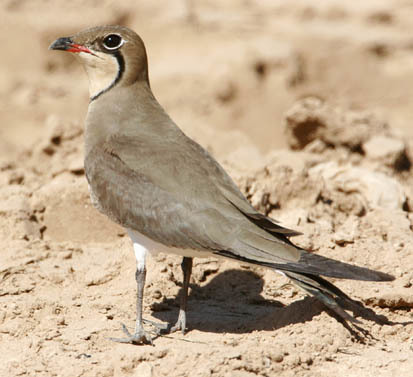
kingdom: Animalia
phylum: Chordata
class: Aves
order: Charadriiformes
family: Glareolidae
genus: Glareola
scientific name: Glareola pratincola
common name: Collared pratincole
